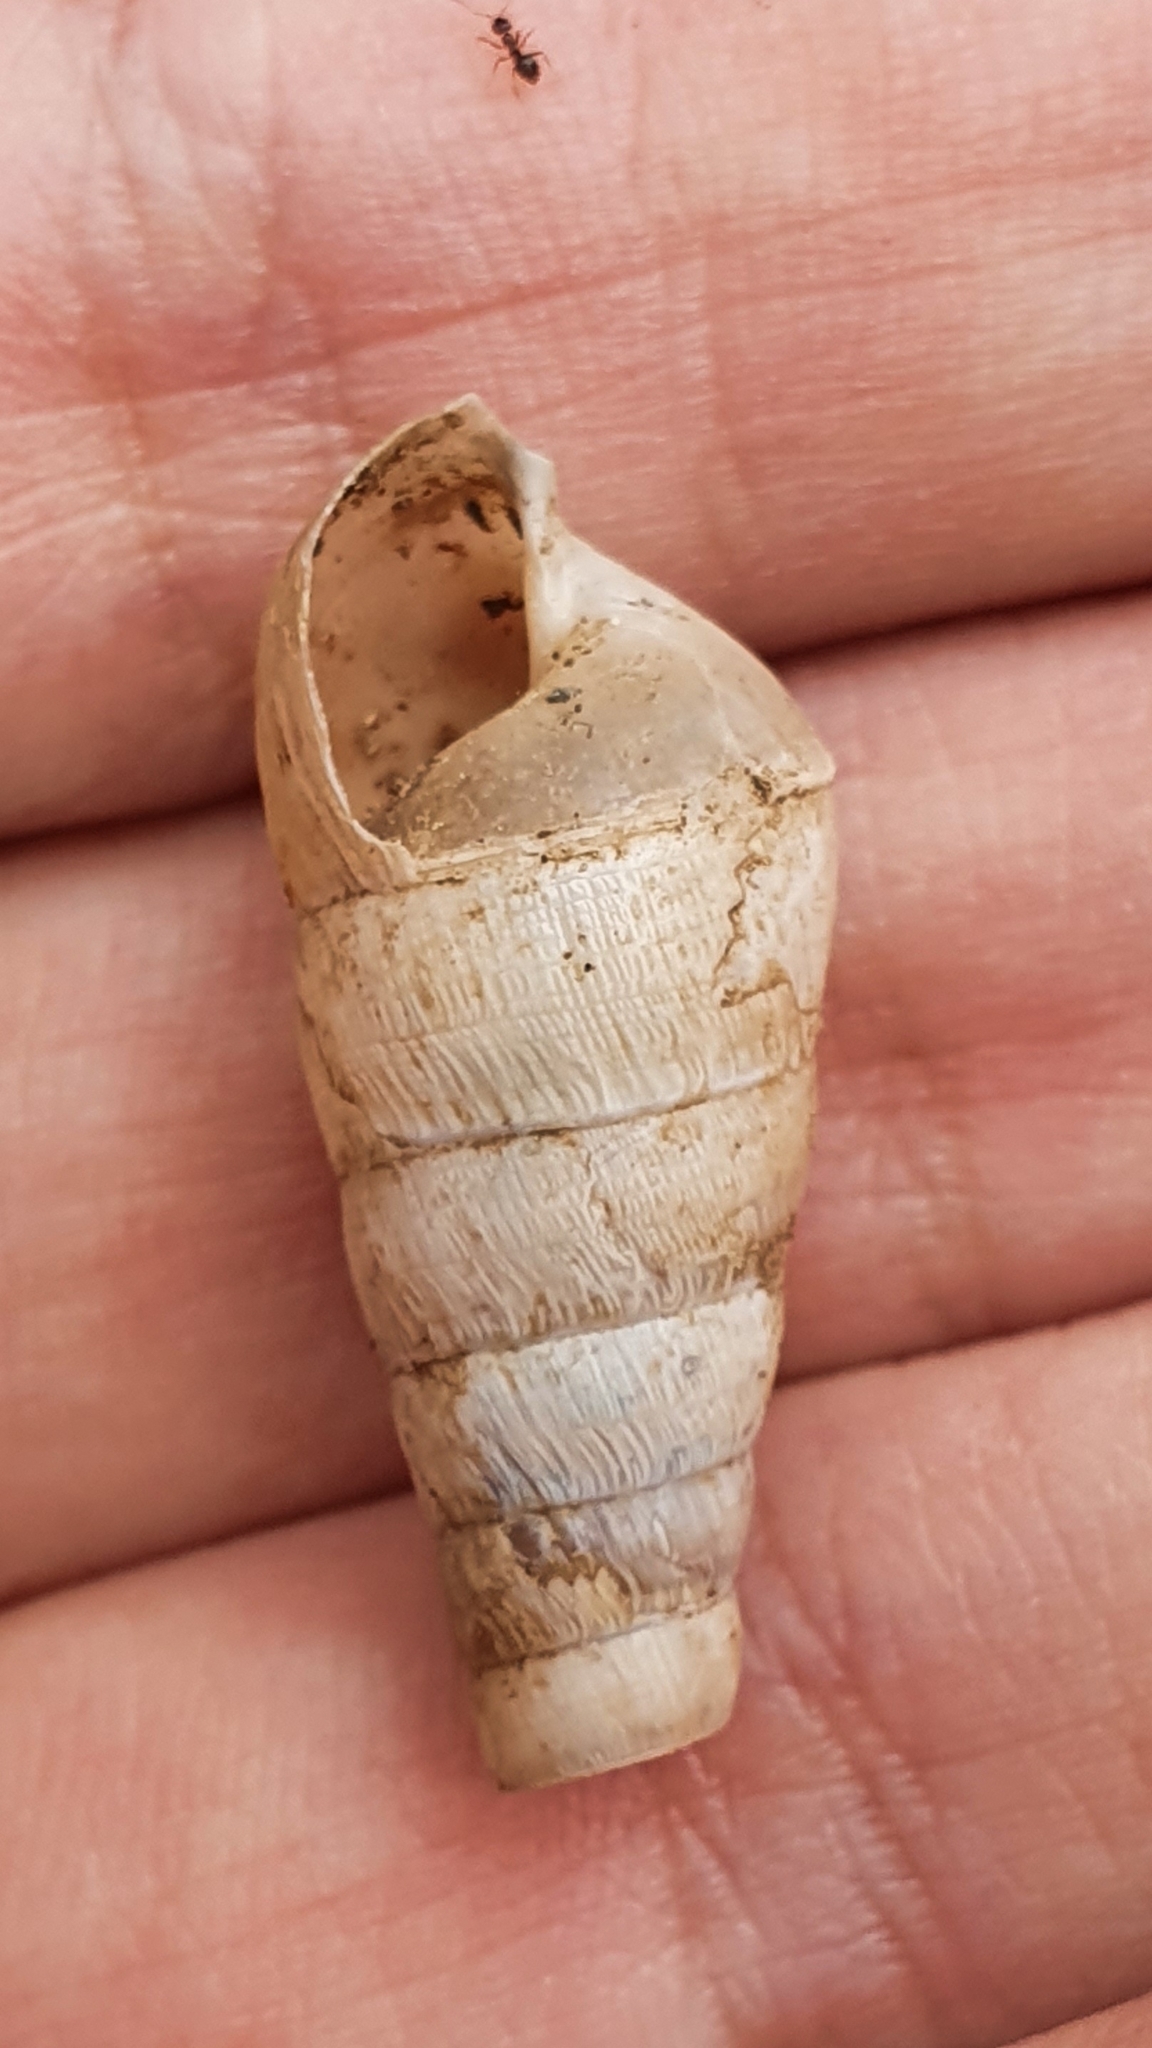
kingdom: Animalia
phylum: Mollusca
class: Gastropoda
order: Stylommatophora
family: Achatinidae
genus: Rumina
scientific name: Rumina decollata
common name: Decollate snail
